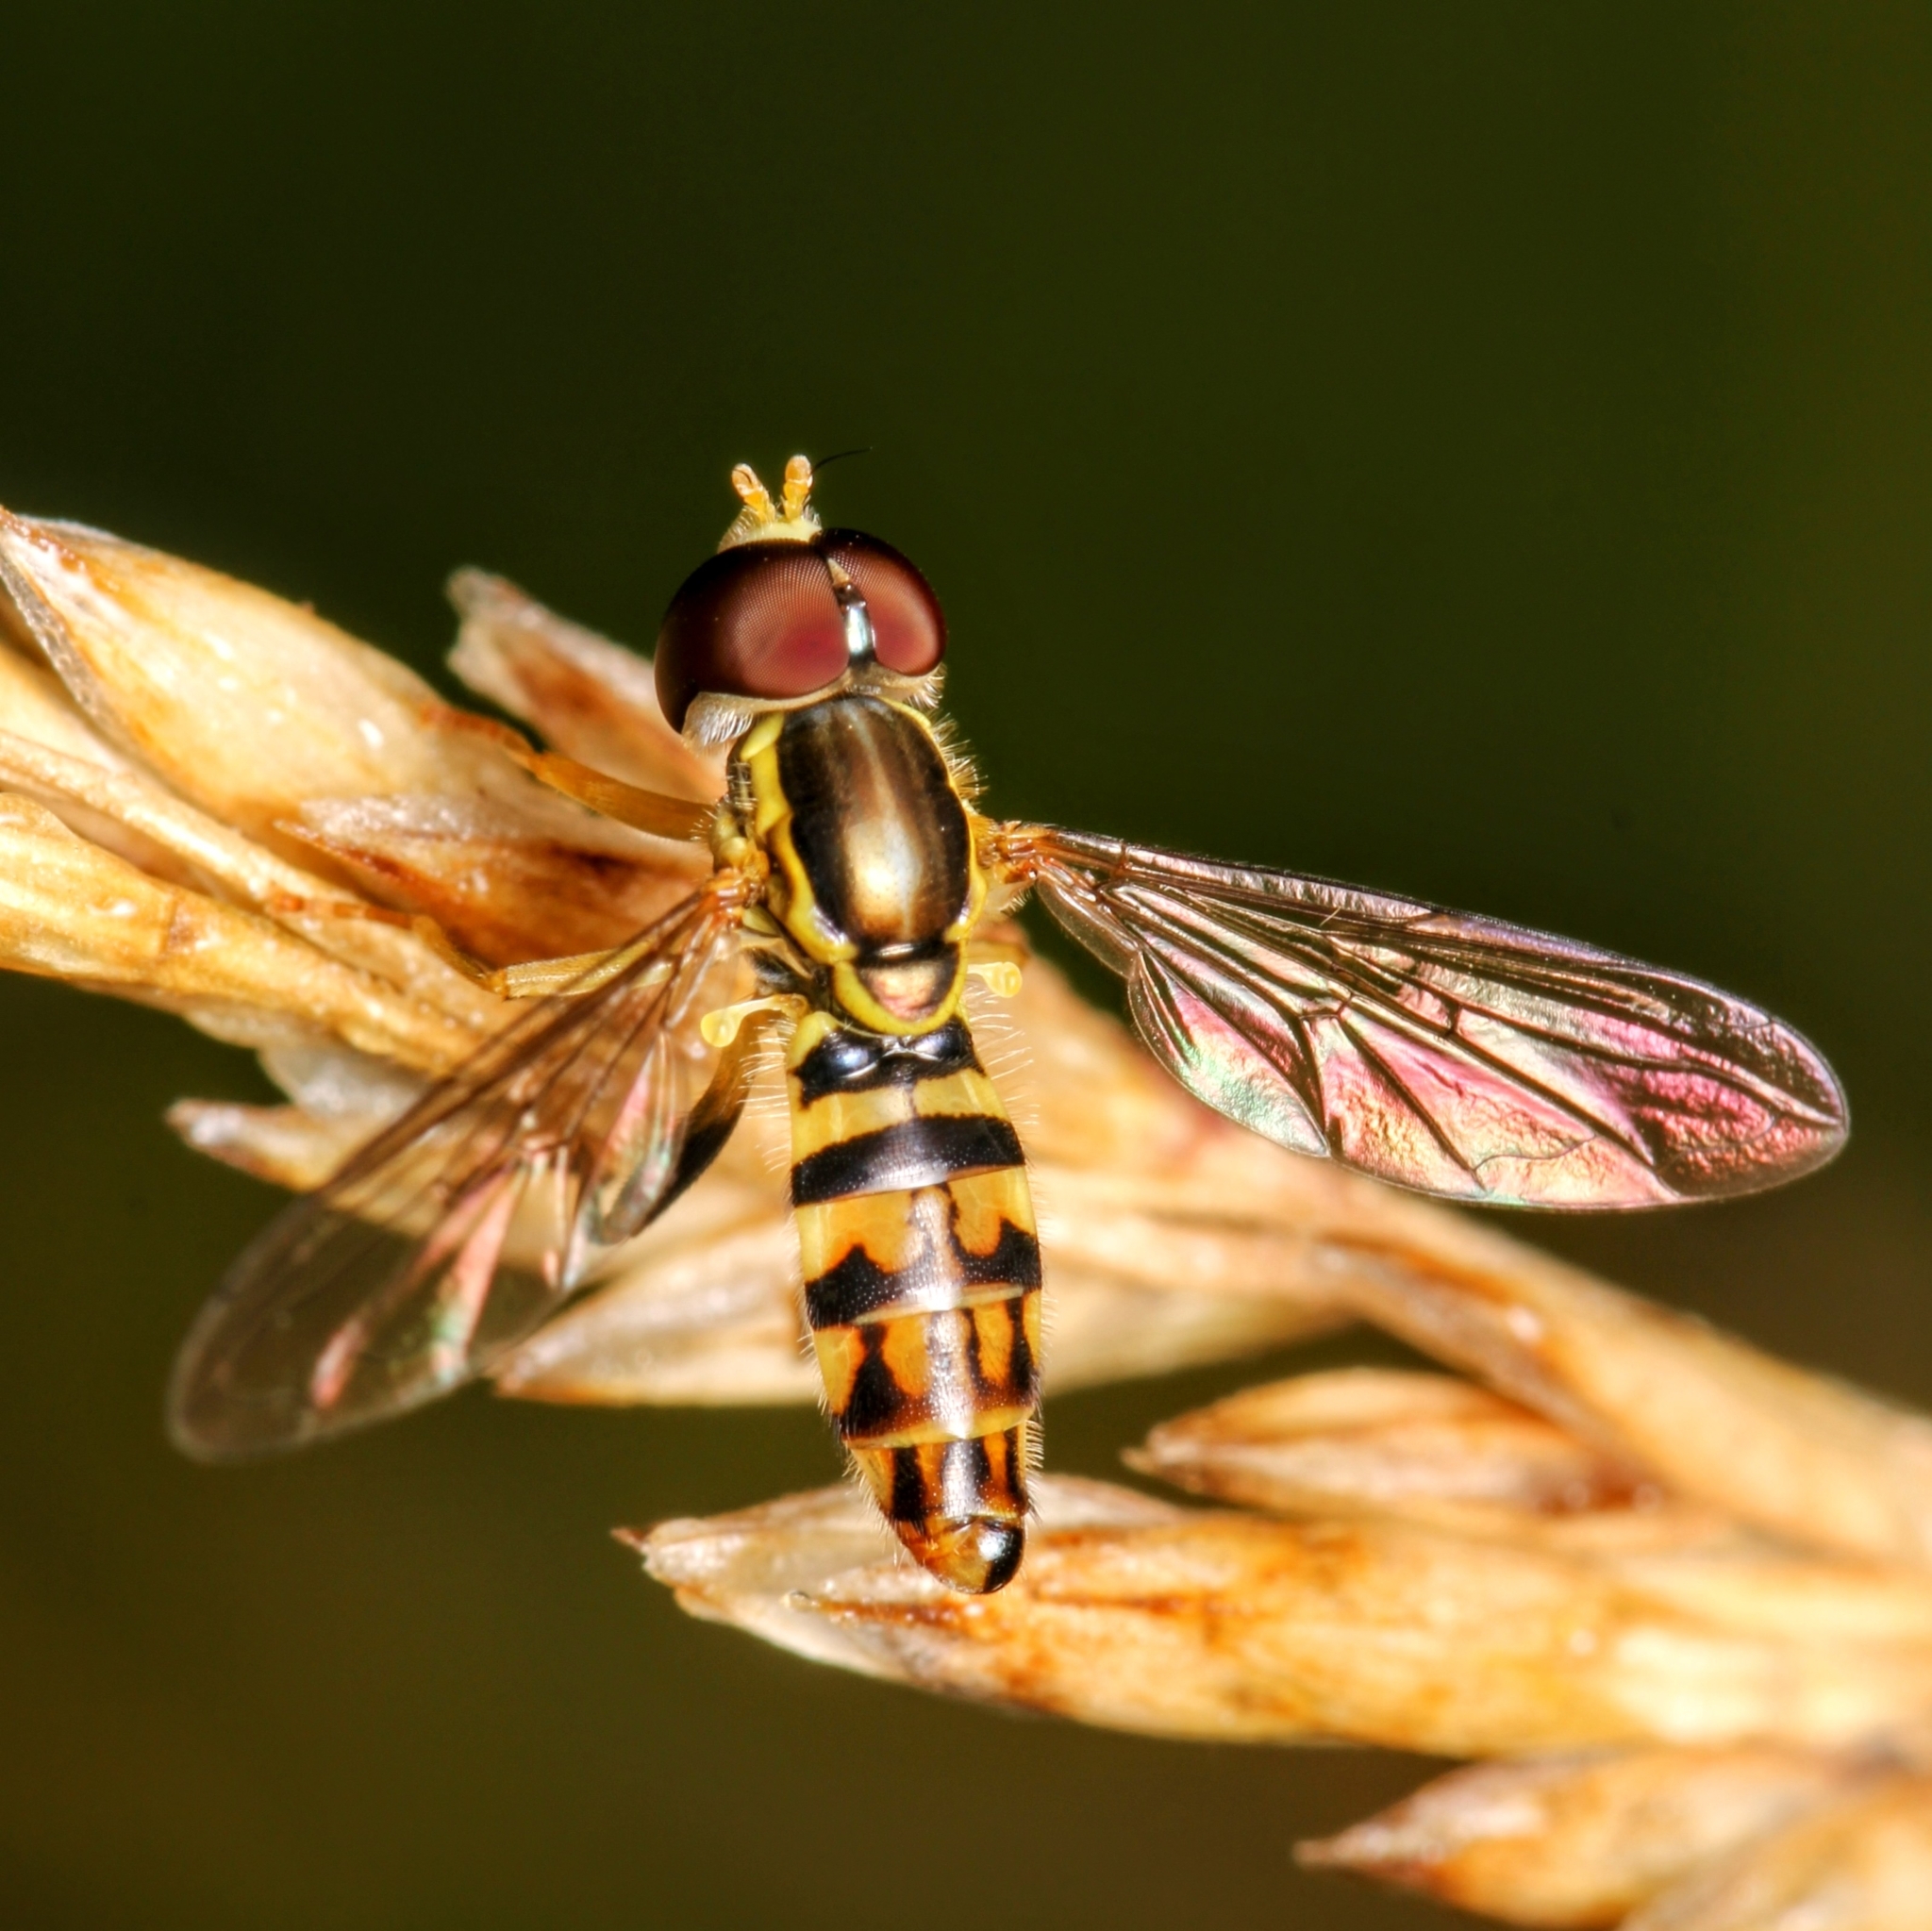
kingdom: Animalia
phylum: Arthropoda
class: Insecta
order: Diptera
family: Syrphidae
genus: Toxomerus
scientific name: Toxomerus geminatus
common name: Eastern calligrapher
